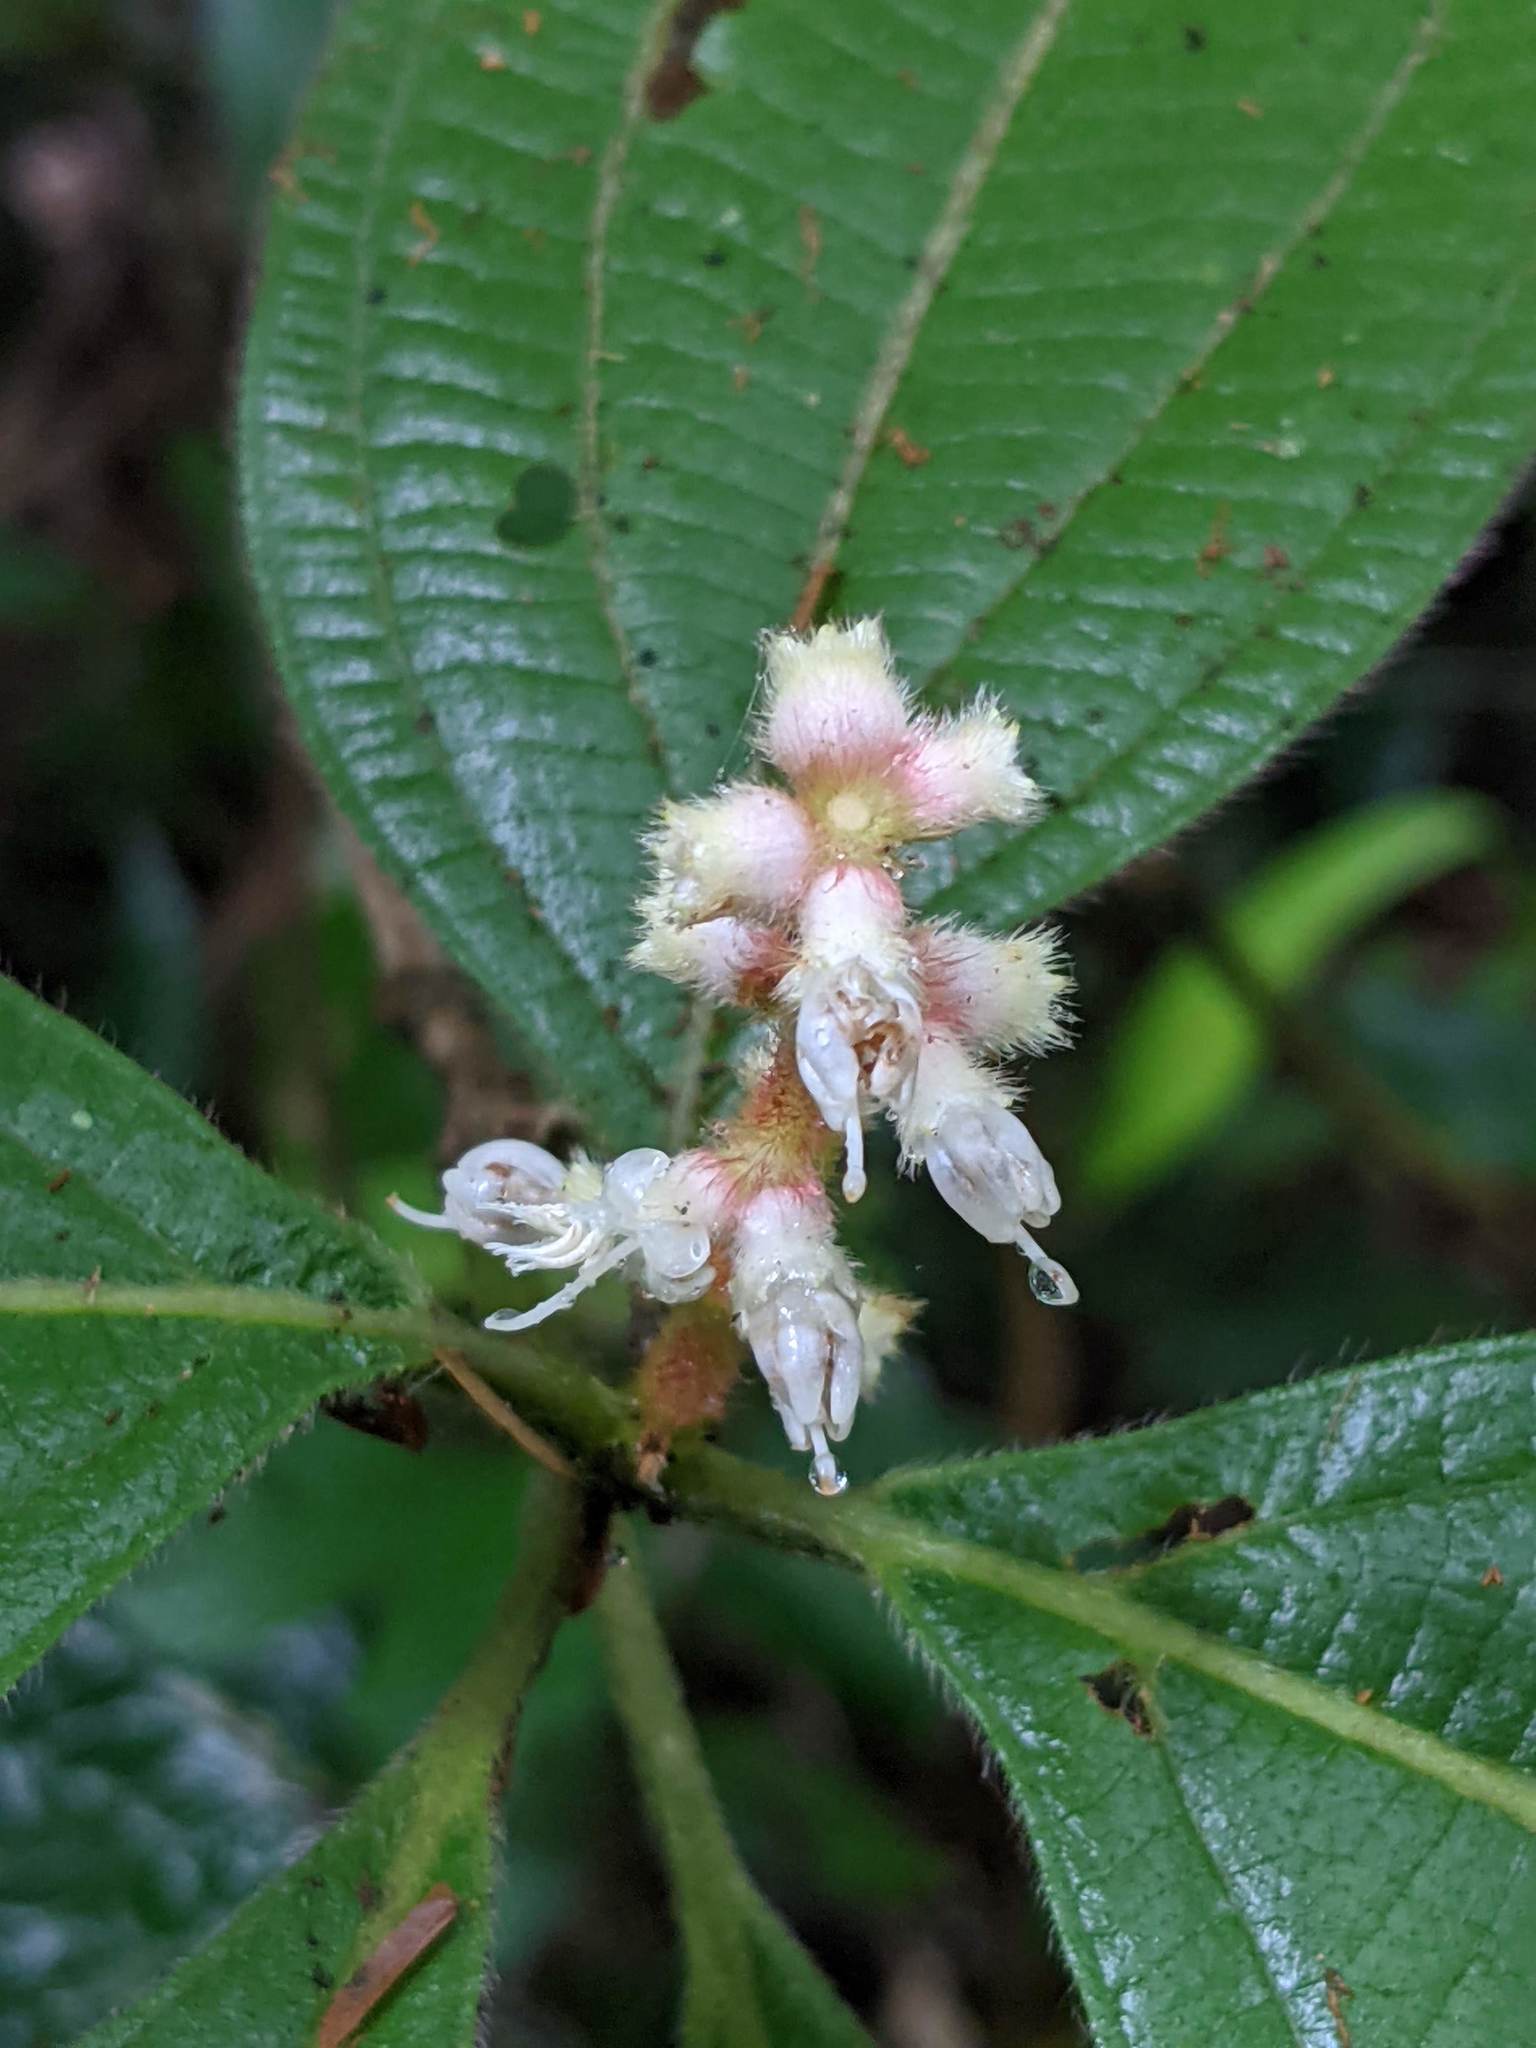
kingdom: Plantae
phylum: Tracheophyta
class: Magnoliopsida
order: Myrtales
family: Melastomataceae
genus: Miconia
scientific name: Miconia nervosa
